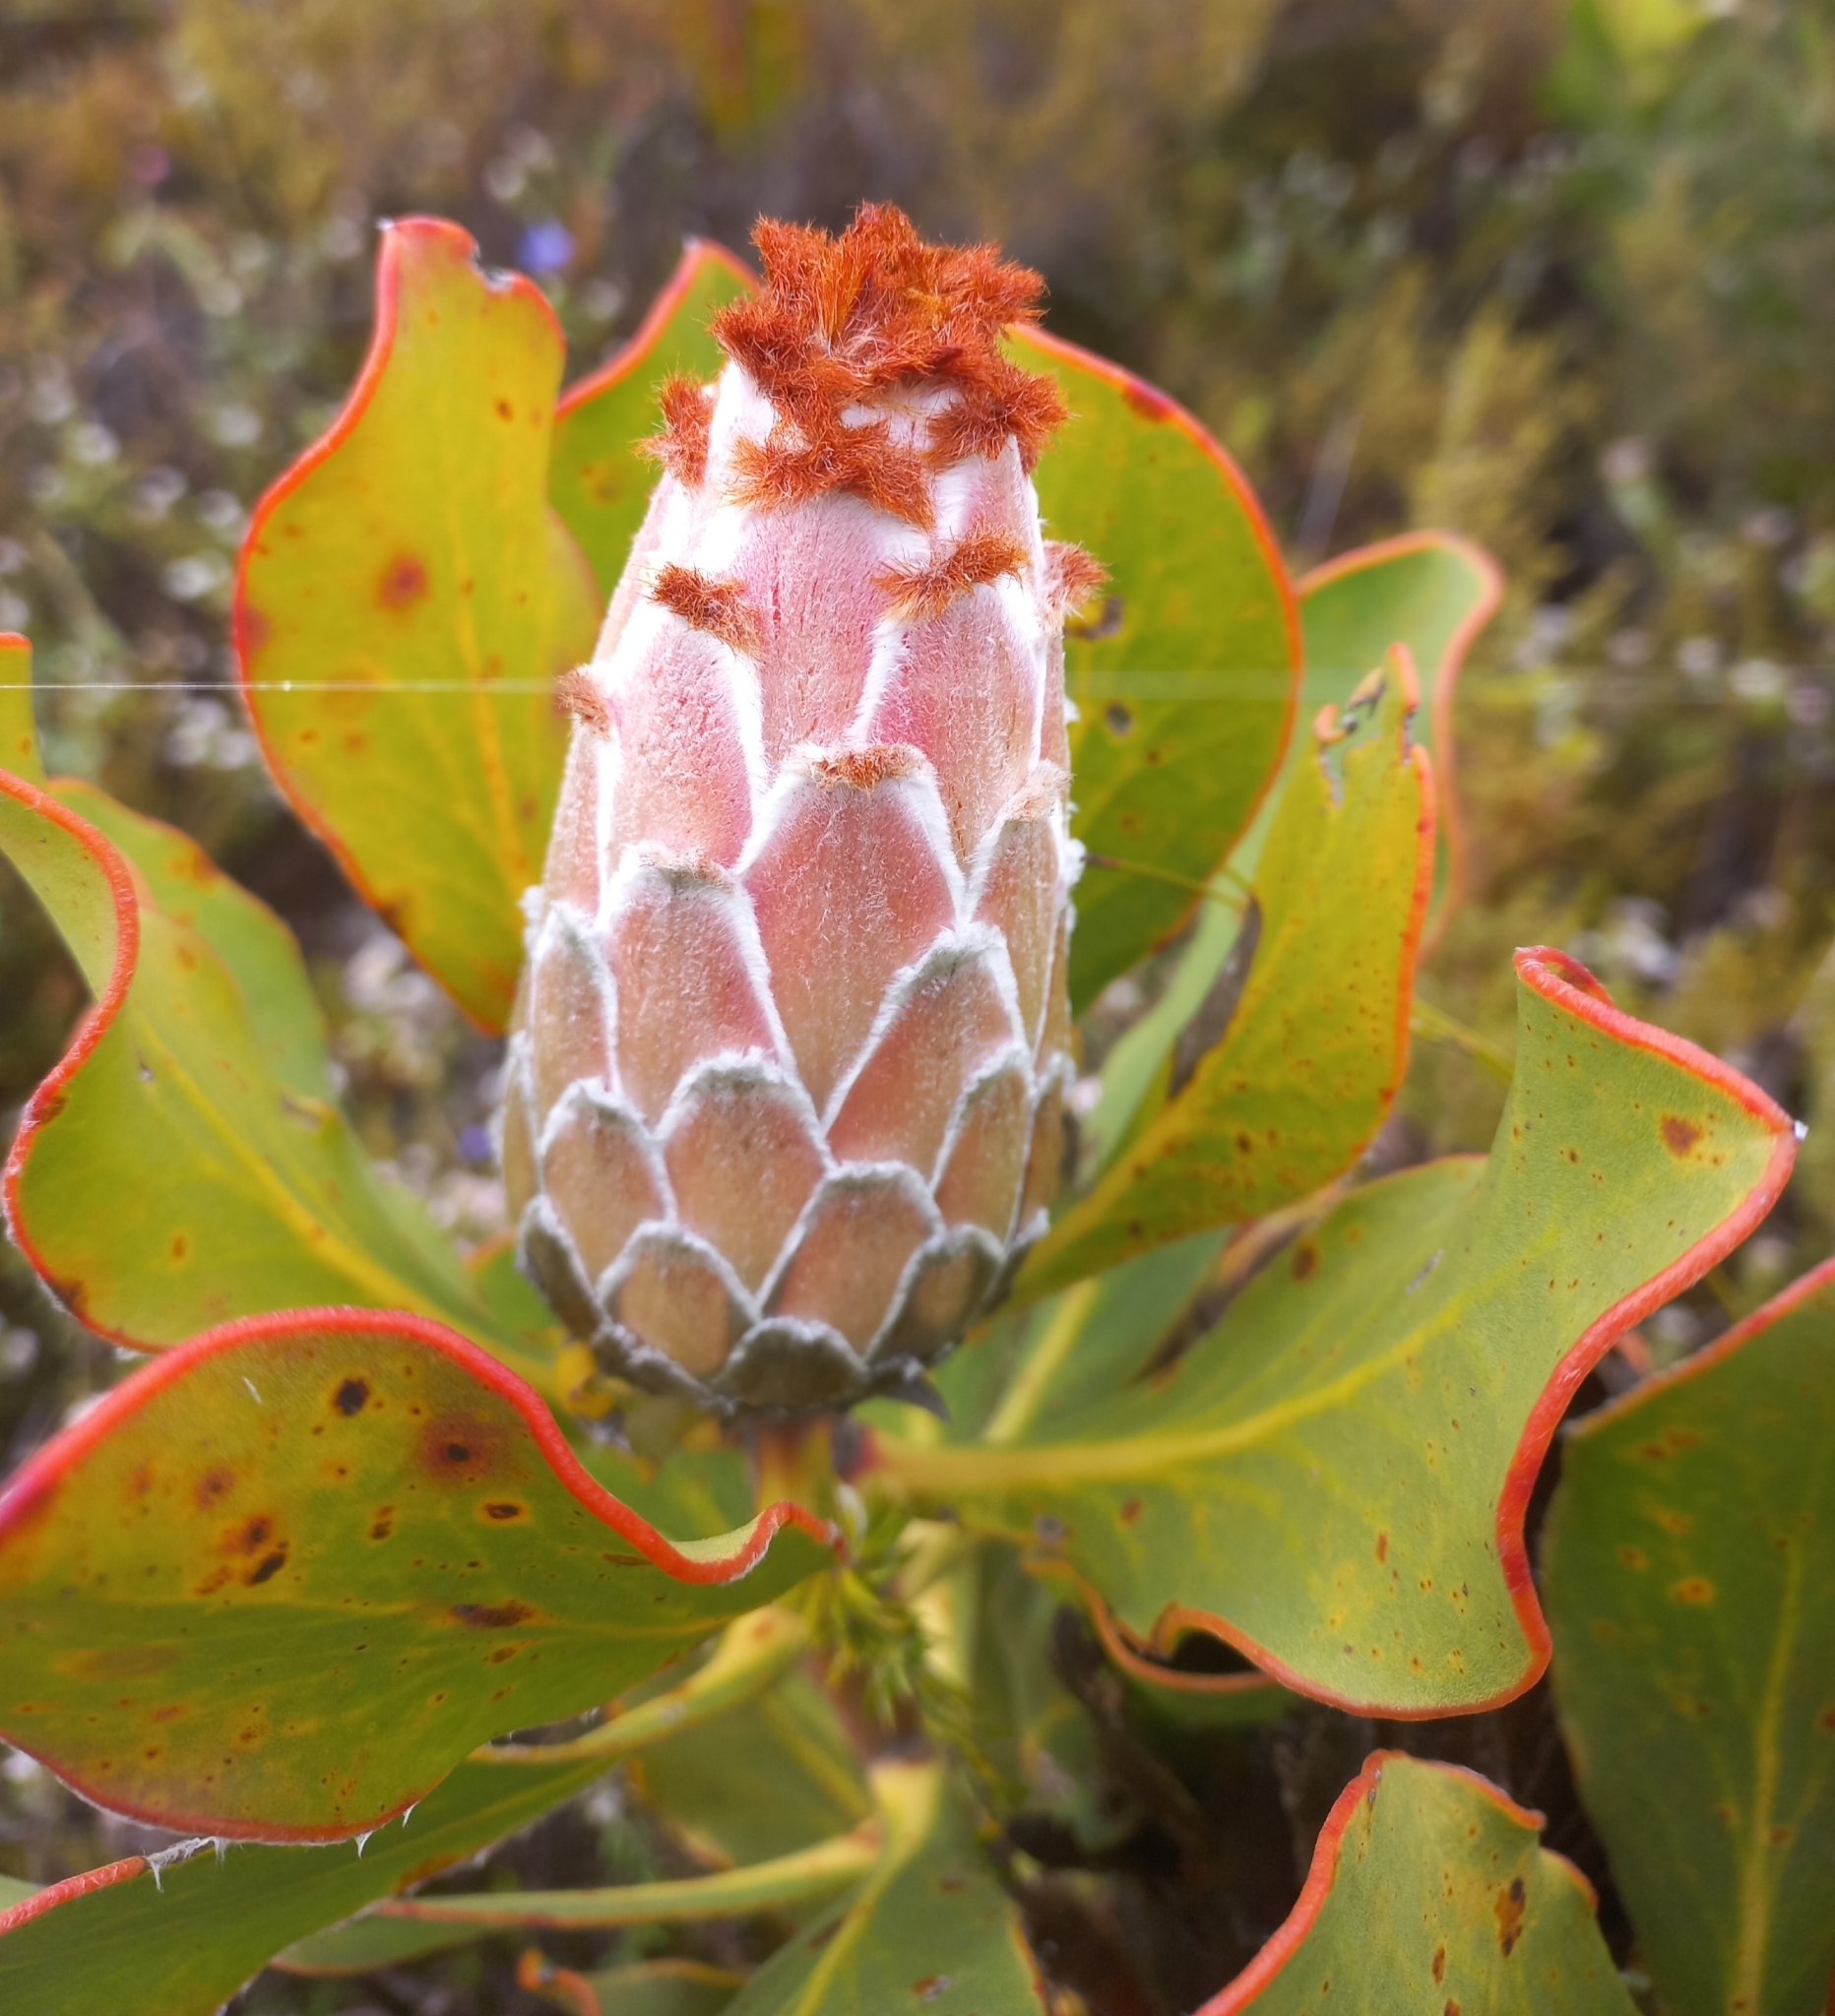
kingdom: Plantae
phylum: Tracheophyta
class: Magnoliopsida
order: Proteales
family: Proteaceae
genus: Protea
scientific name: Protea speciosa
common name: Brown-beard sugarbush
